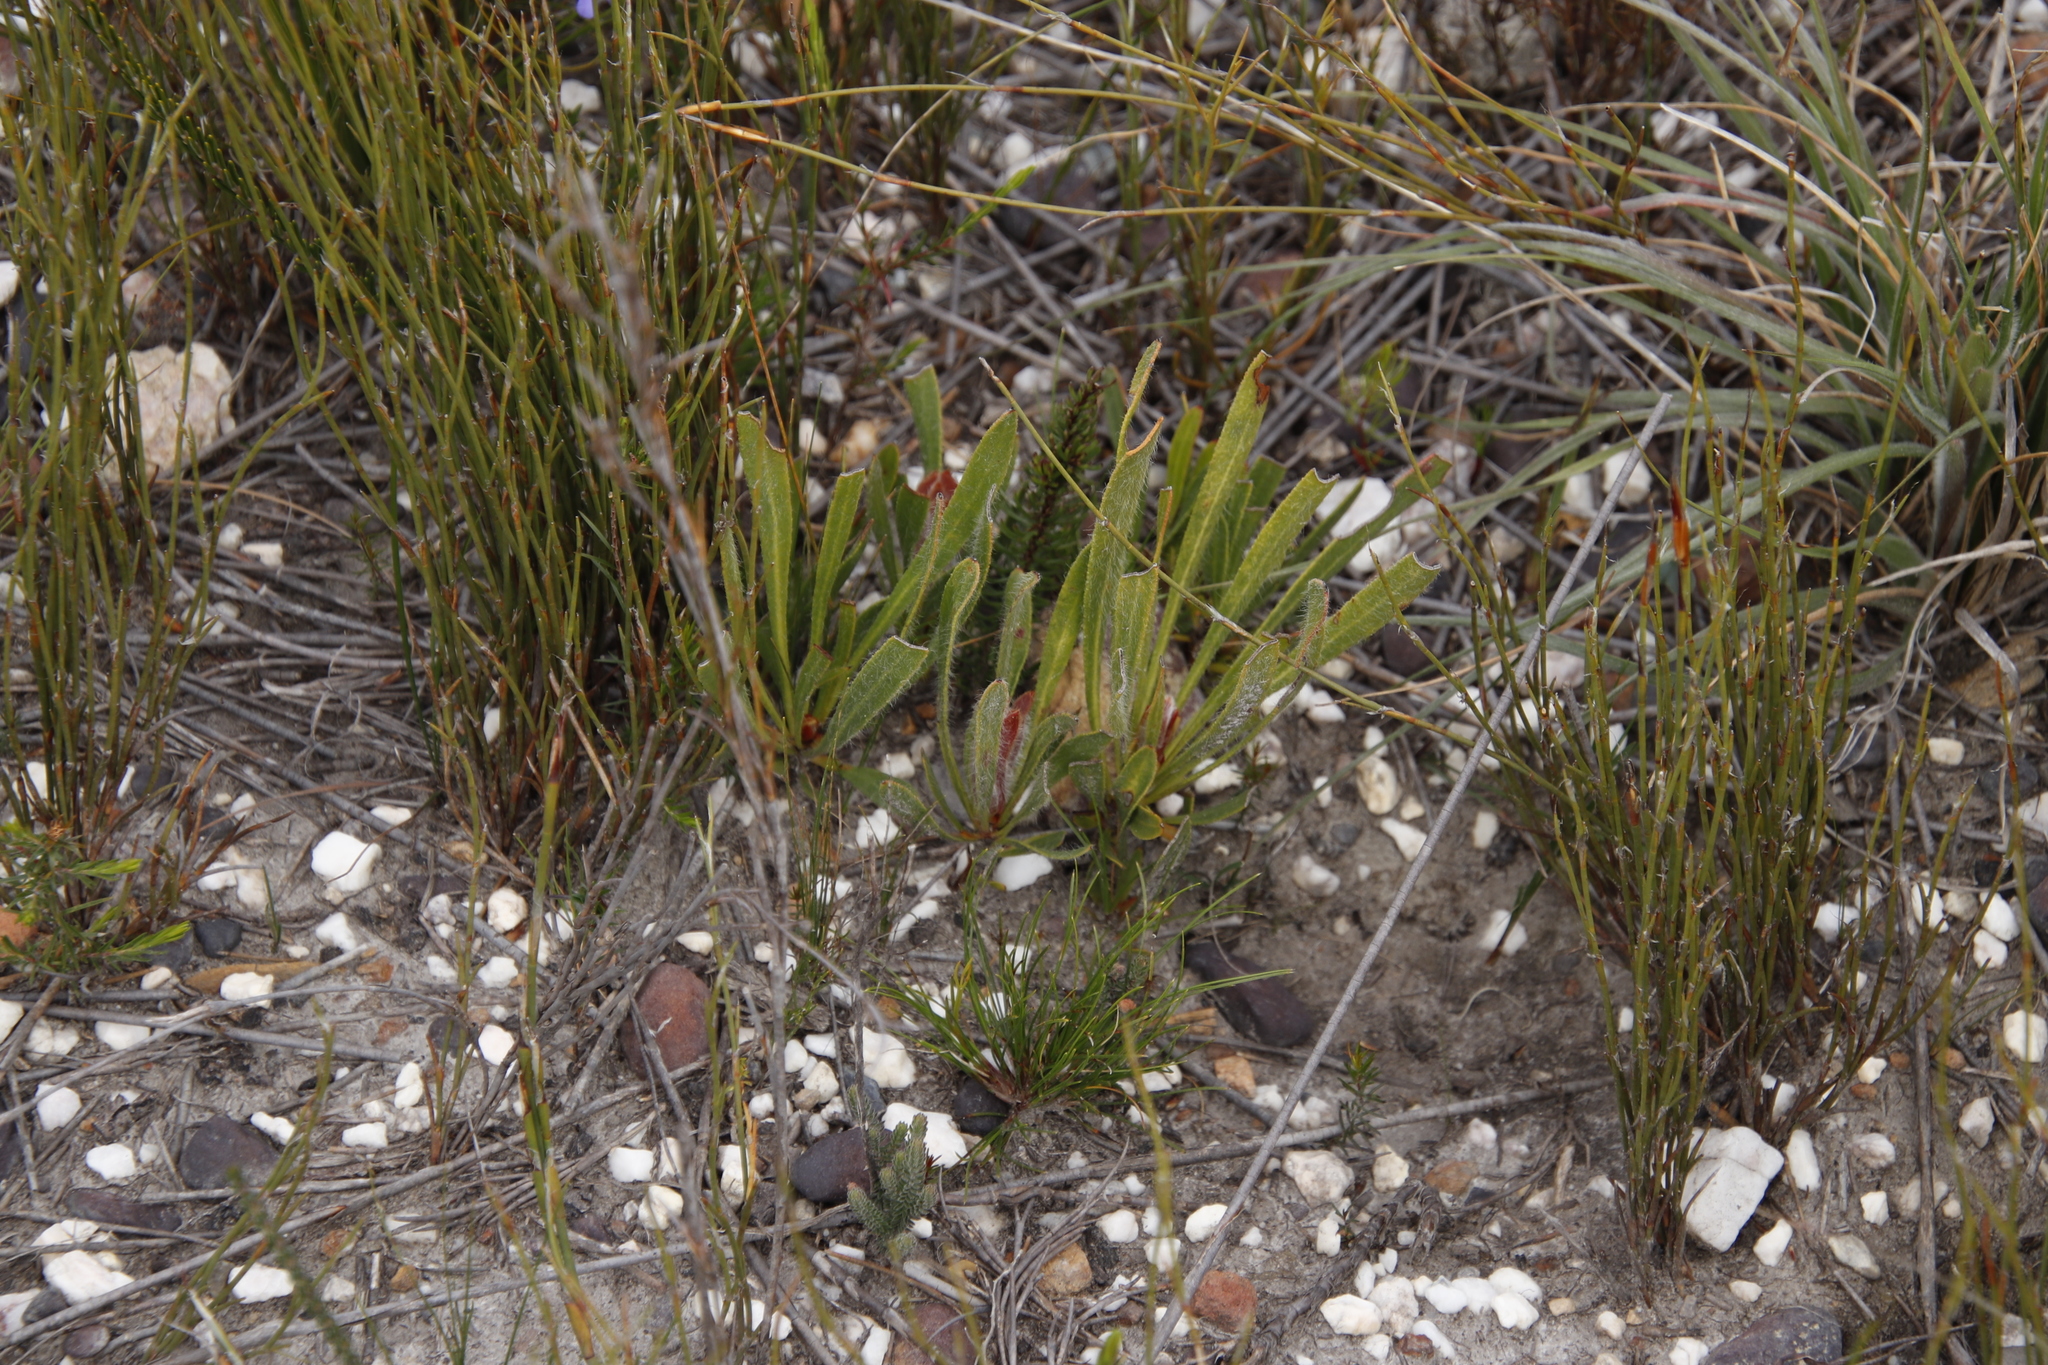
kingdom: Plantae
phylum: Tracheophyta
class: Magnoliopsida
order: Proteales
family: Proteaceae
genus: Protea
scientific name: Protea aspera
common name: Rough-leaf sugarbush
